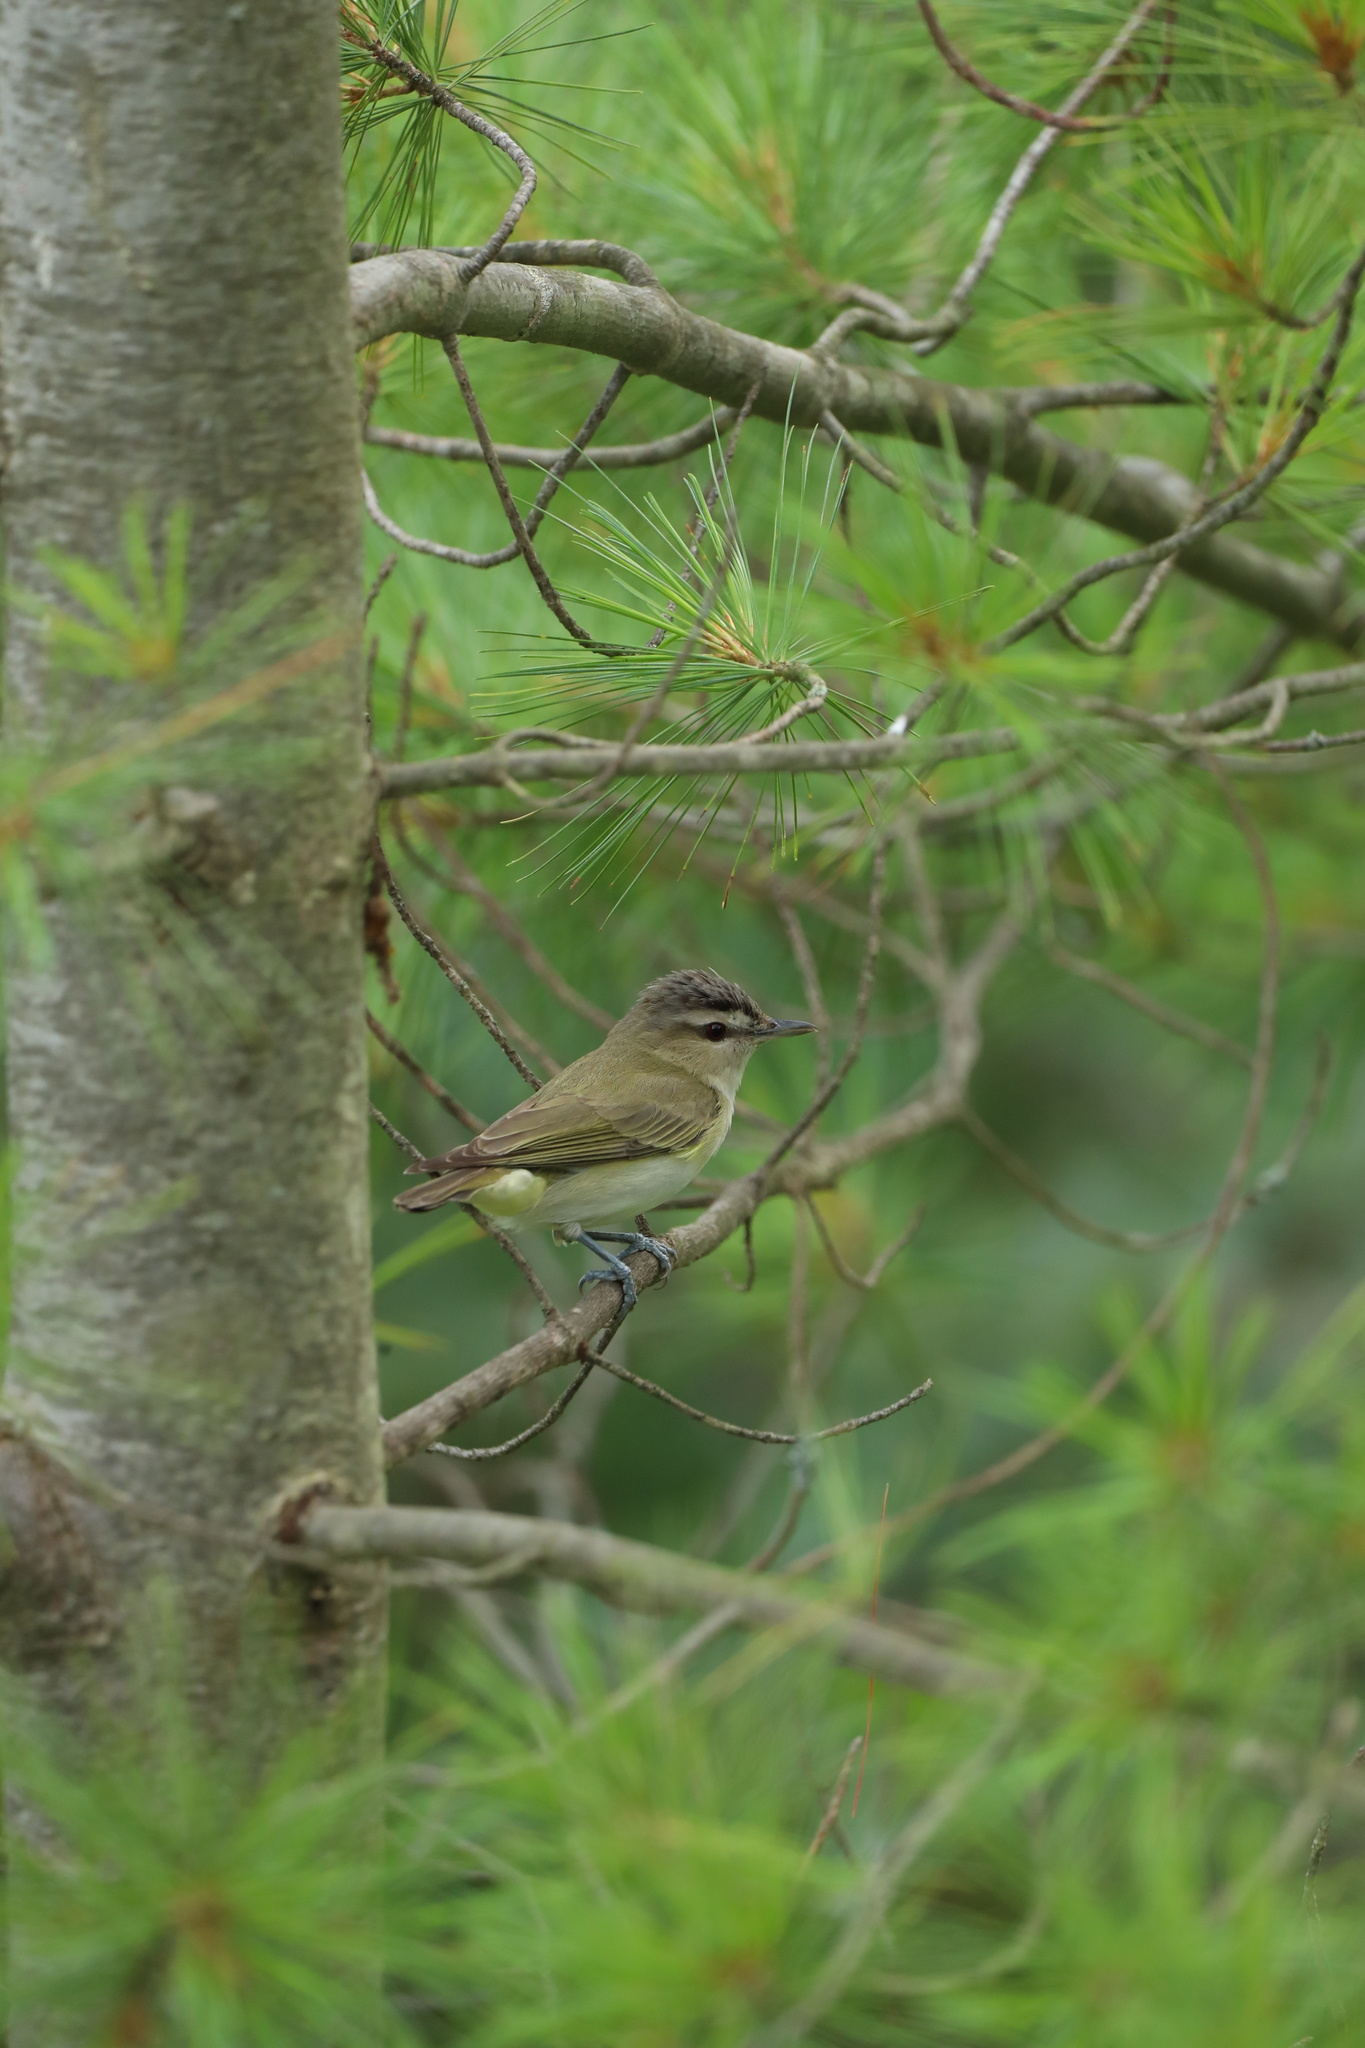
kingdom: Animalia
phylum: Chordata
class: Aves
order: Passeriformes
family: Vireonidae
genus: Vireo
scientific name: Vireo olivaceus
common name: Red-eyed vireo
